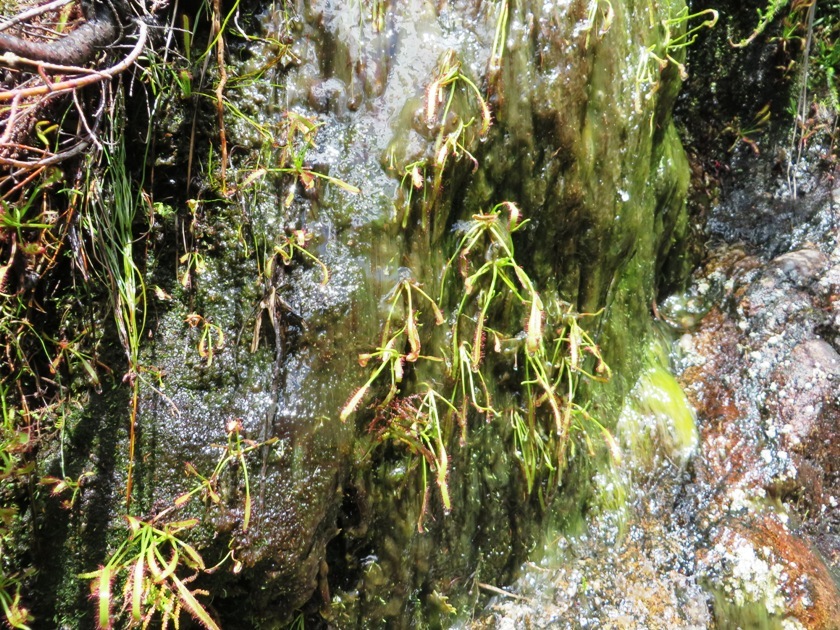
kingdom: Plantae
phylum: Tracheophyta
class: Magnoliopsida
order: Caryophyllales
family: Droseraceae
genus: Drosera
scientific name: Drosera capensis
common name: Cape sundew
